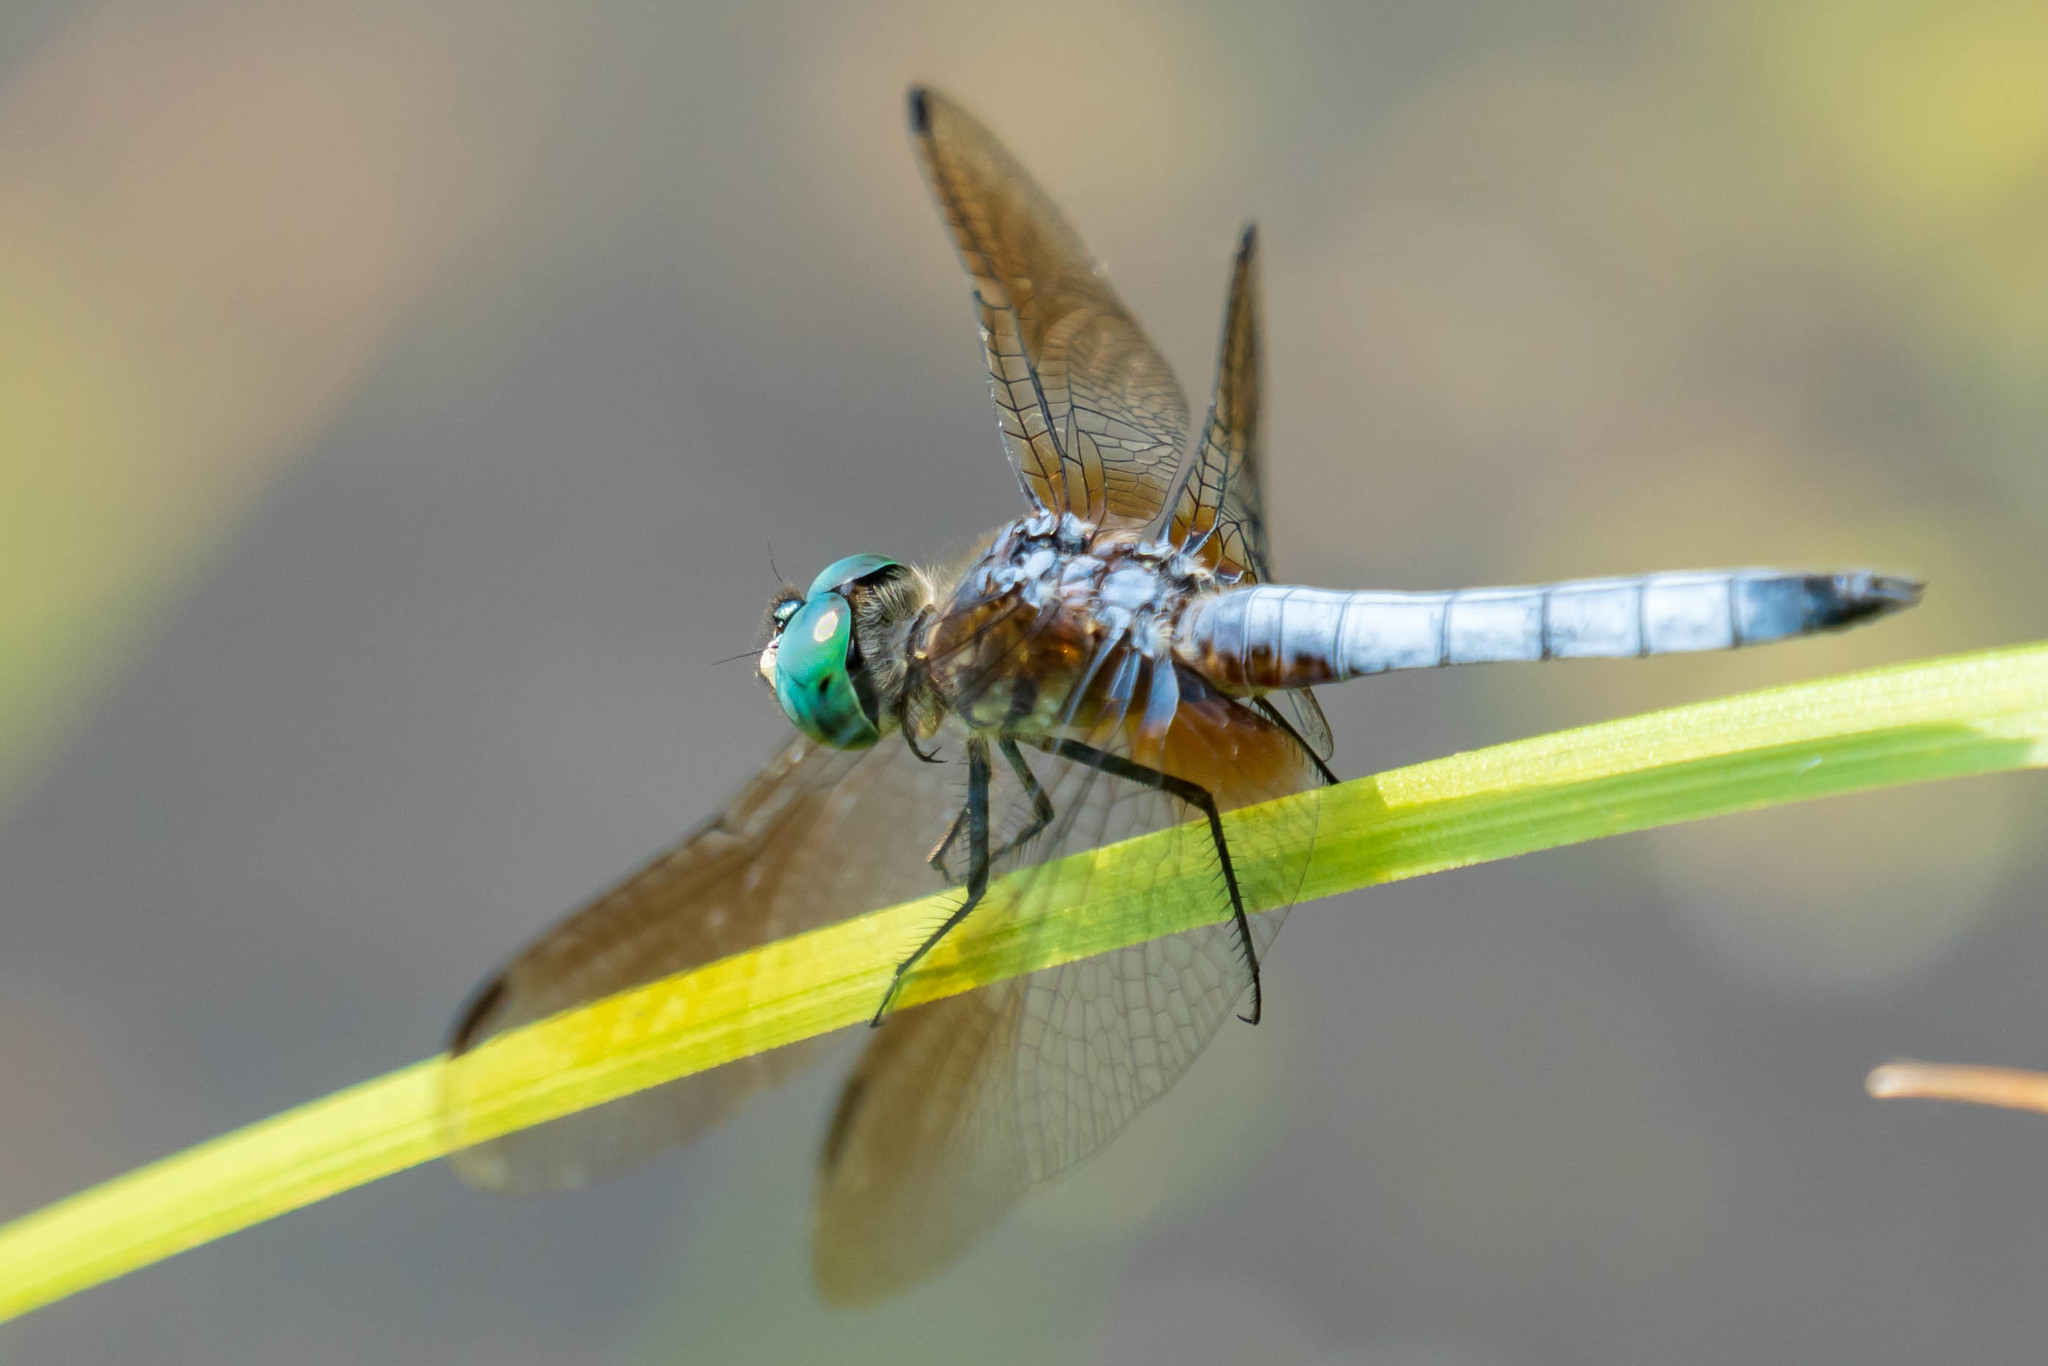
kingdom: Animalia
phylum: Arthropoda
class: Insecta
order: Odonata
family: Libellulidae
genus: Pachydiplax
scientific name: Pachydiplax longipennis
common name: Blue dasher
